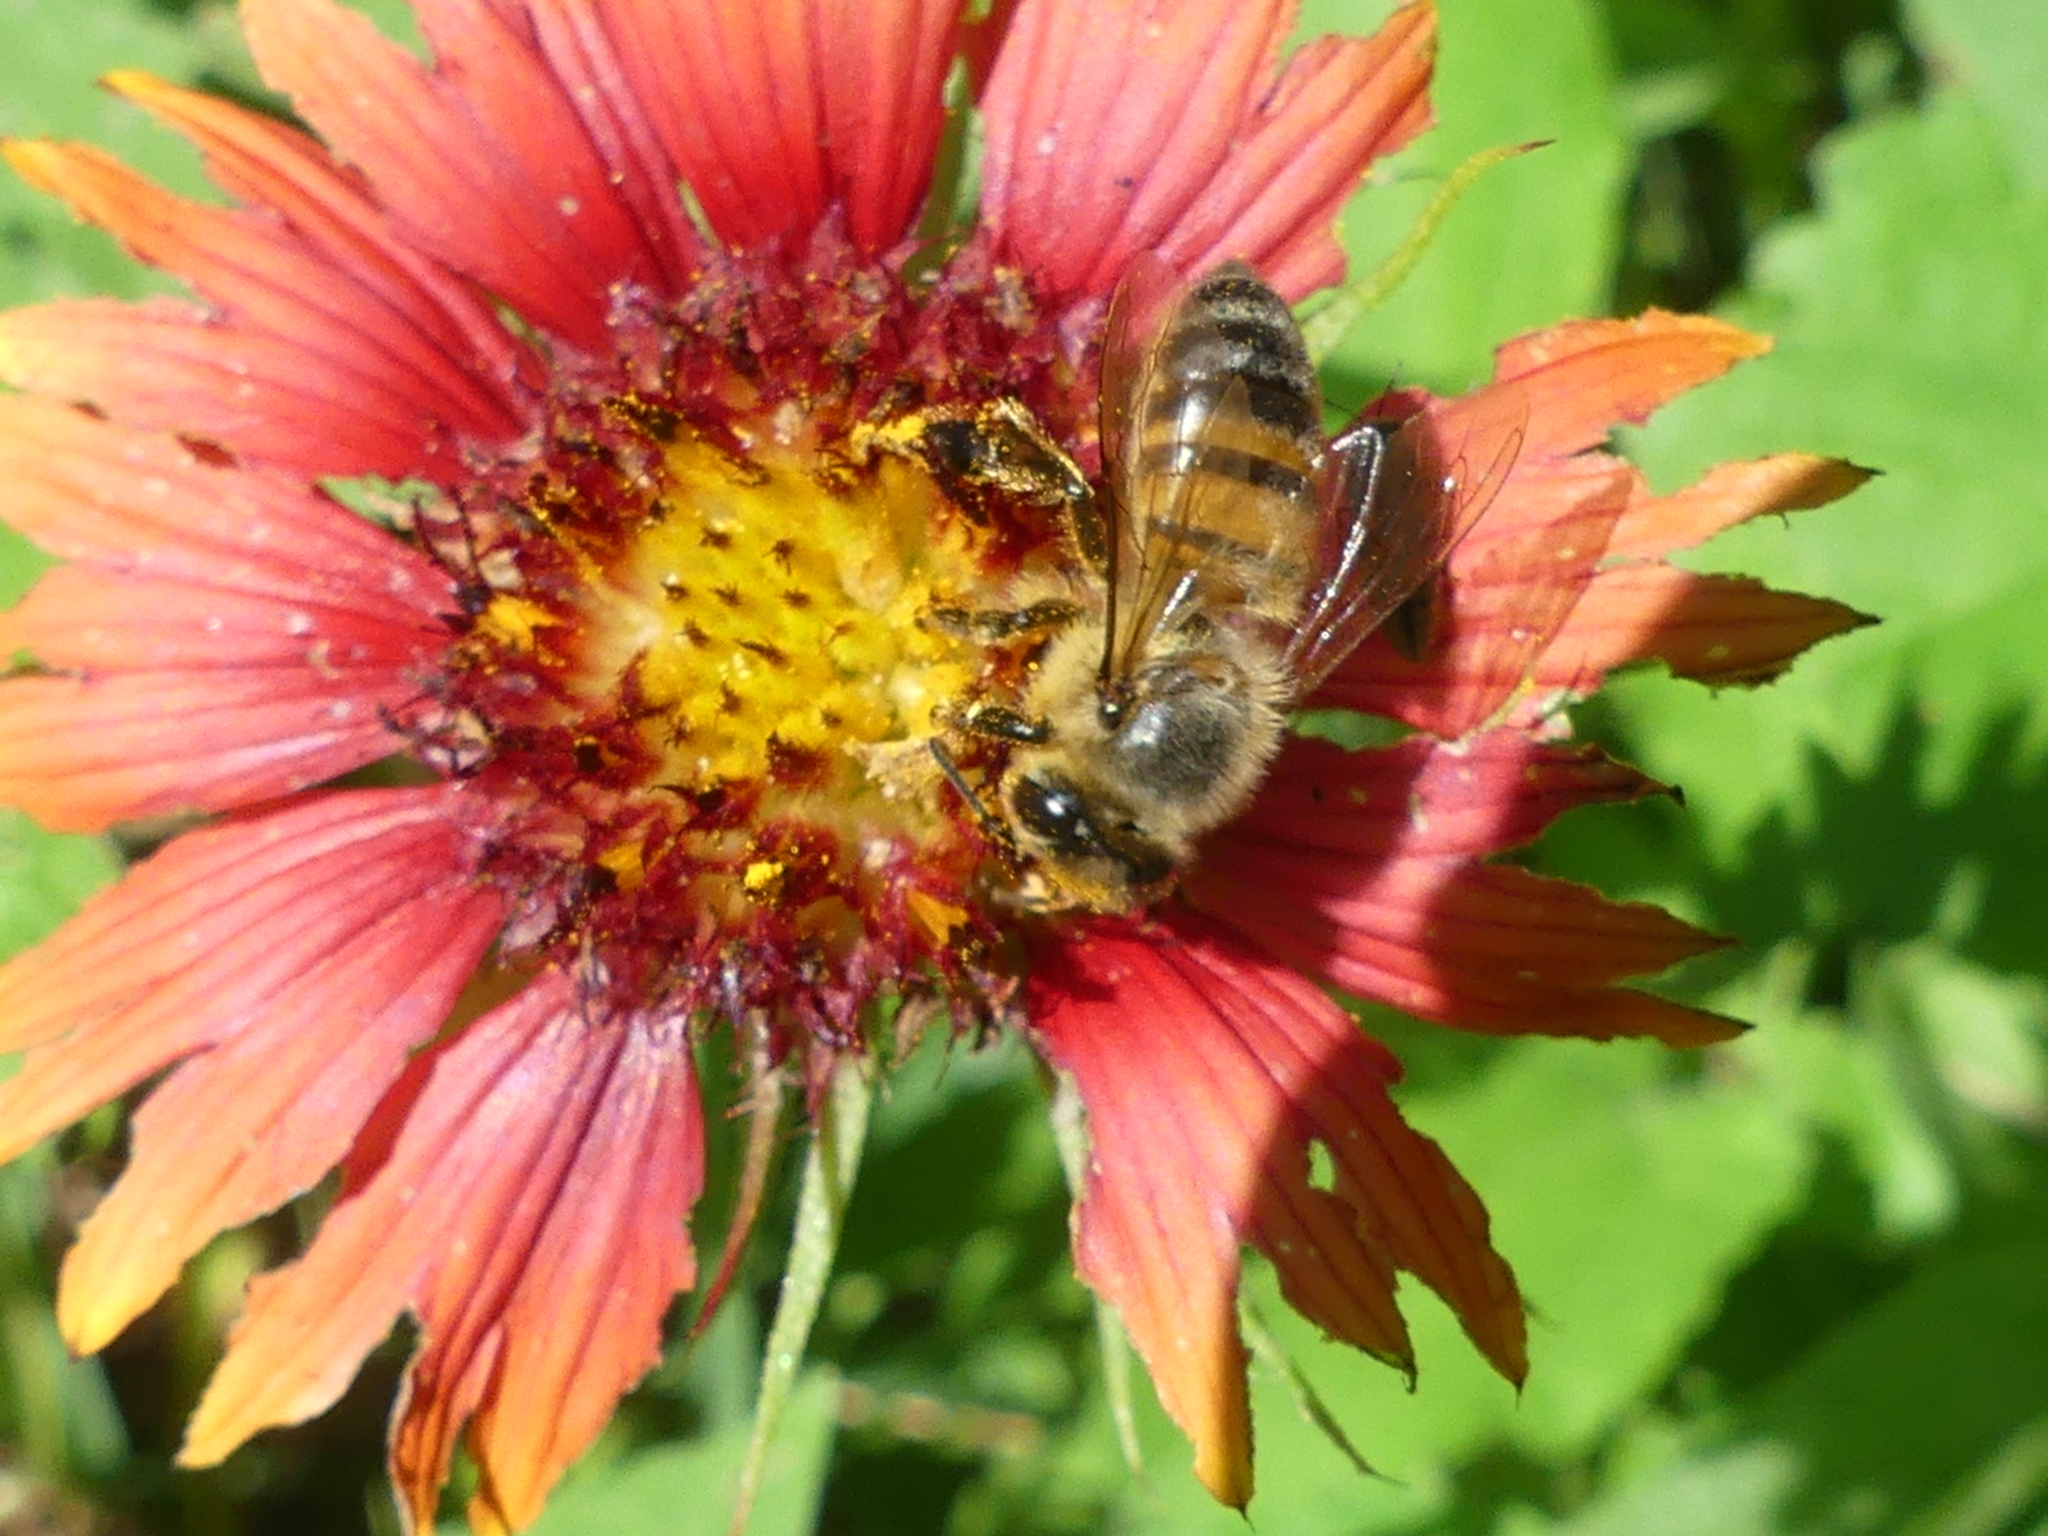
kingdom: Animalia
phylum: Arthropoda
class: Insecta
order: Hymenoptera
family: Apidae
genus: Apis
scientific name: Apis mellifera
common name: Honey bee
